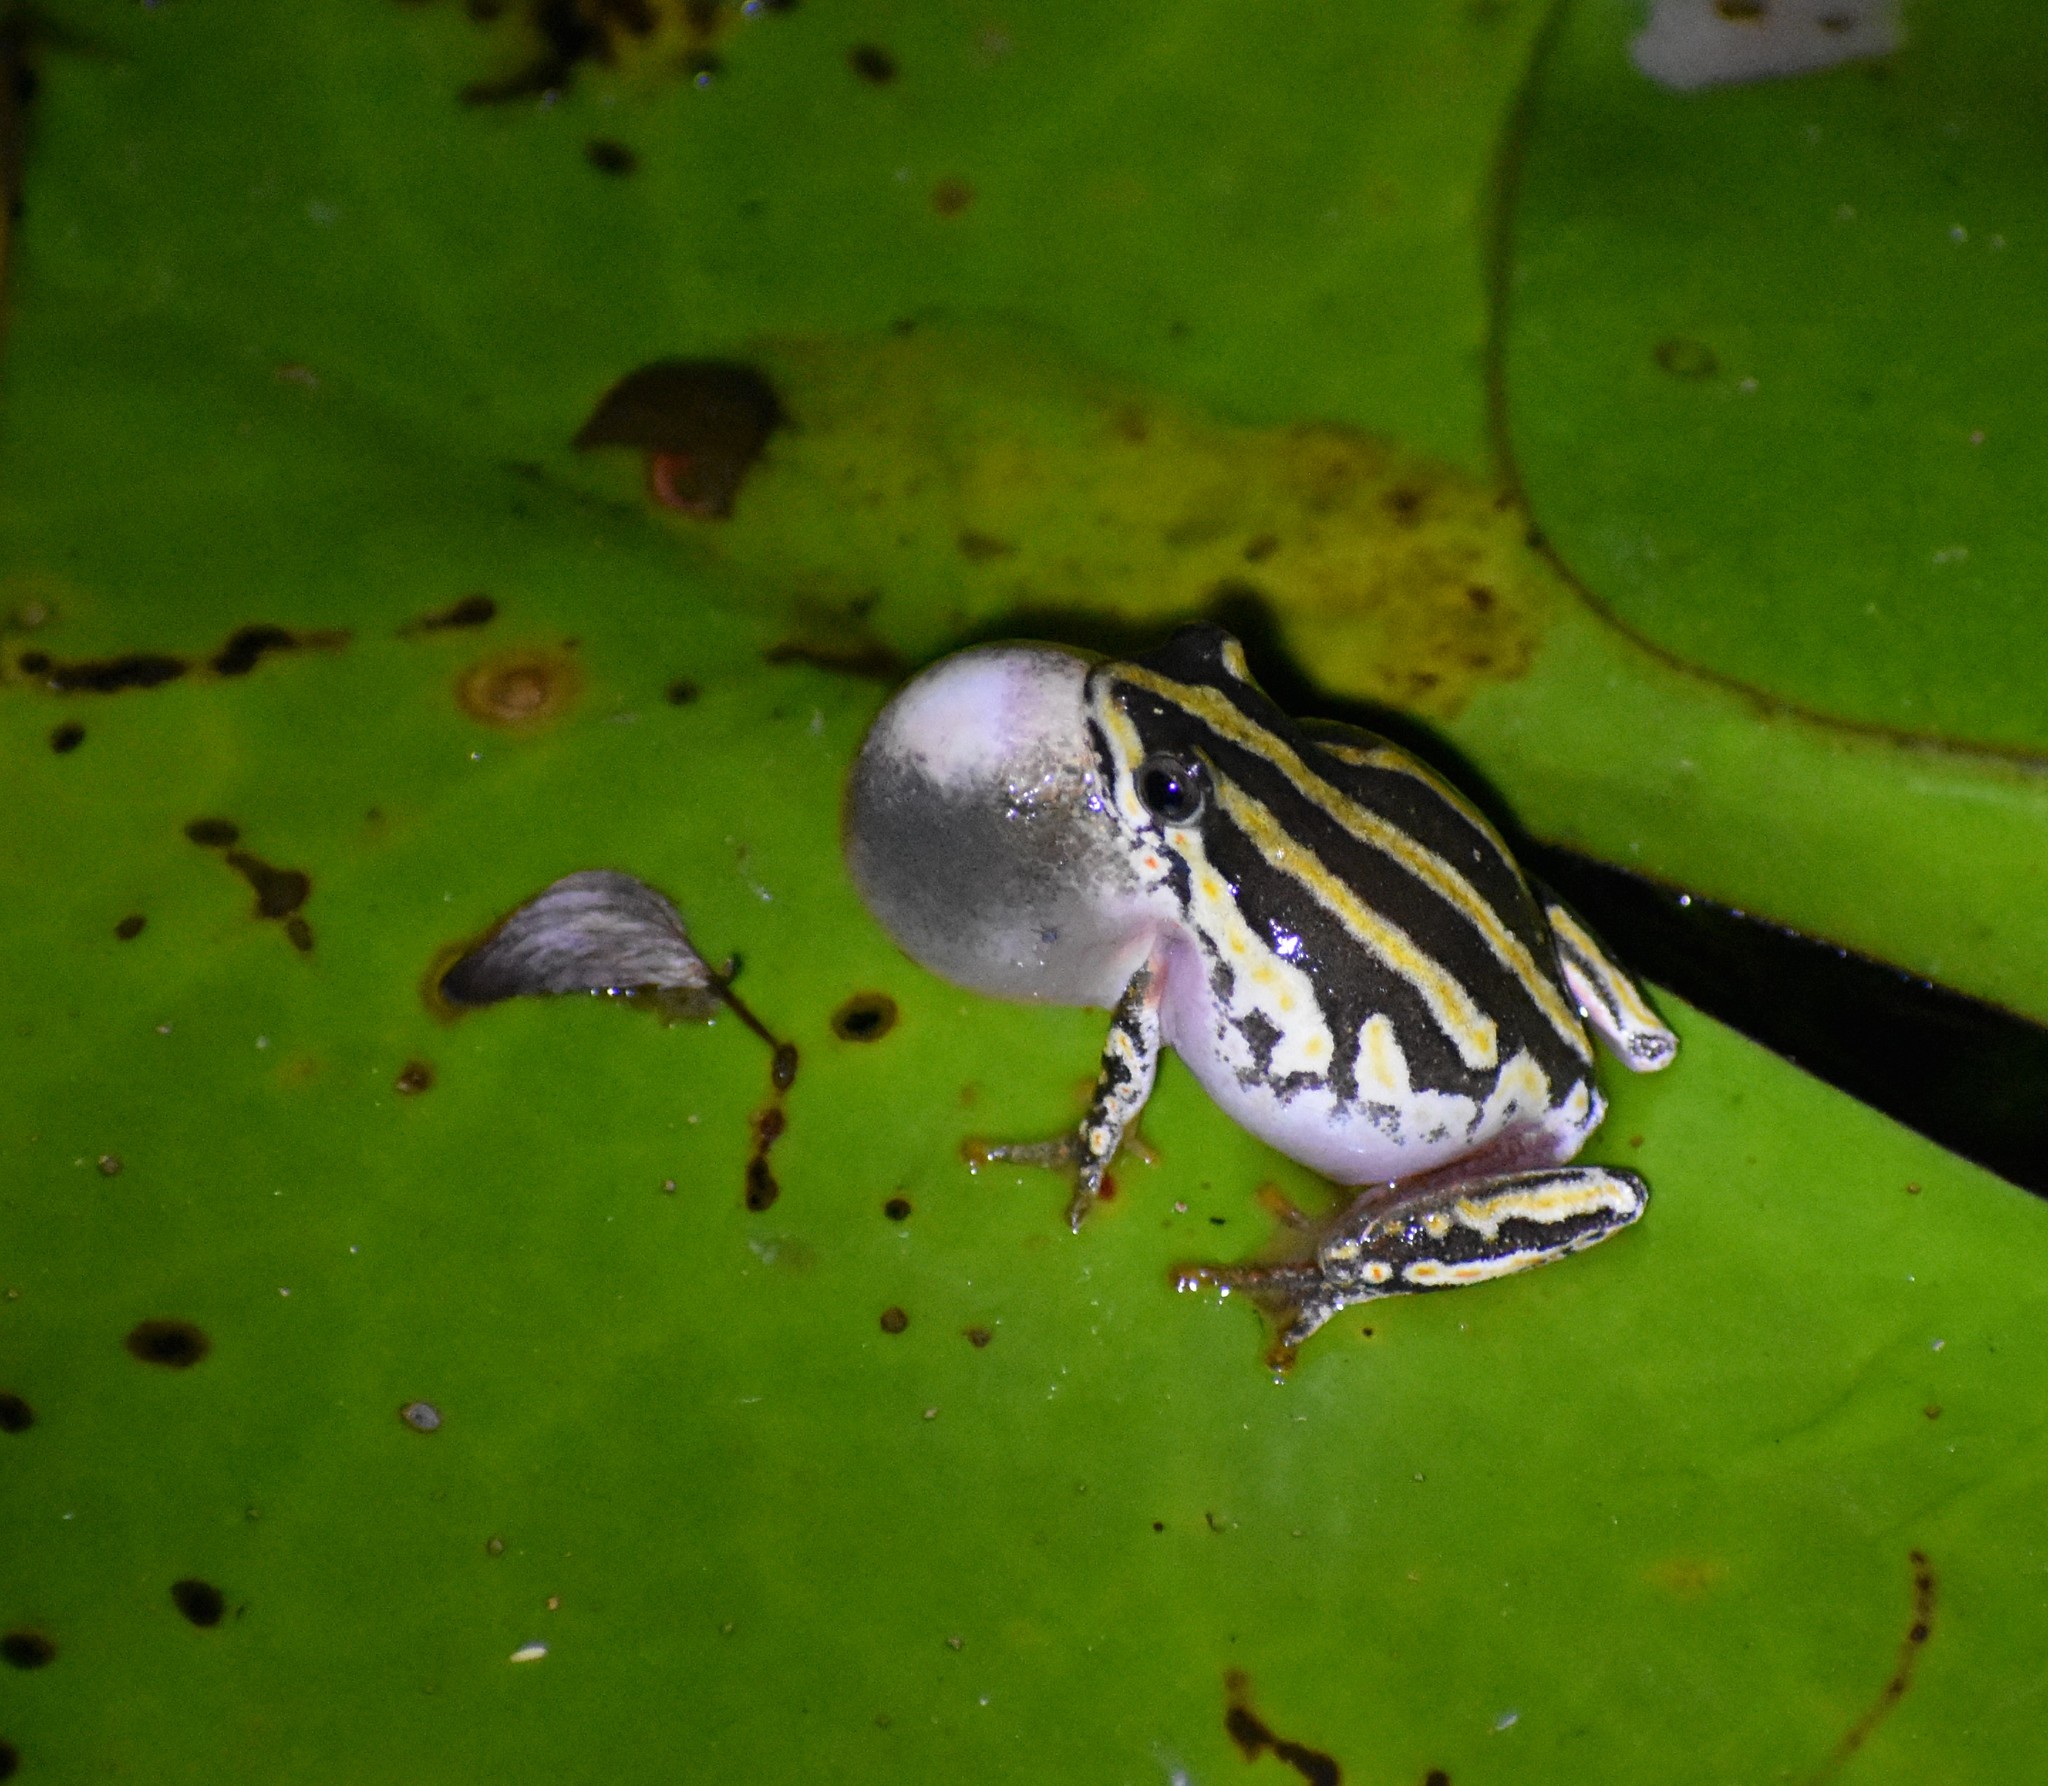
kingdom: Animalia
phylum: Chordata
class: Amphibia
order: Anura
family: Hyperoliidae
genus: Hyperolius
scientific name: Hyperolius marmoratus
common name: Painted reed frog
